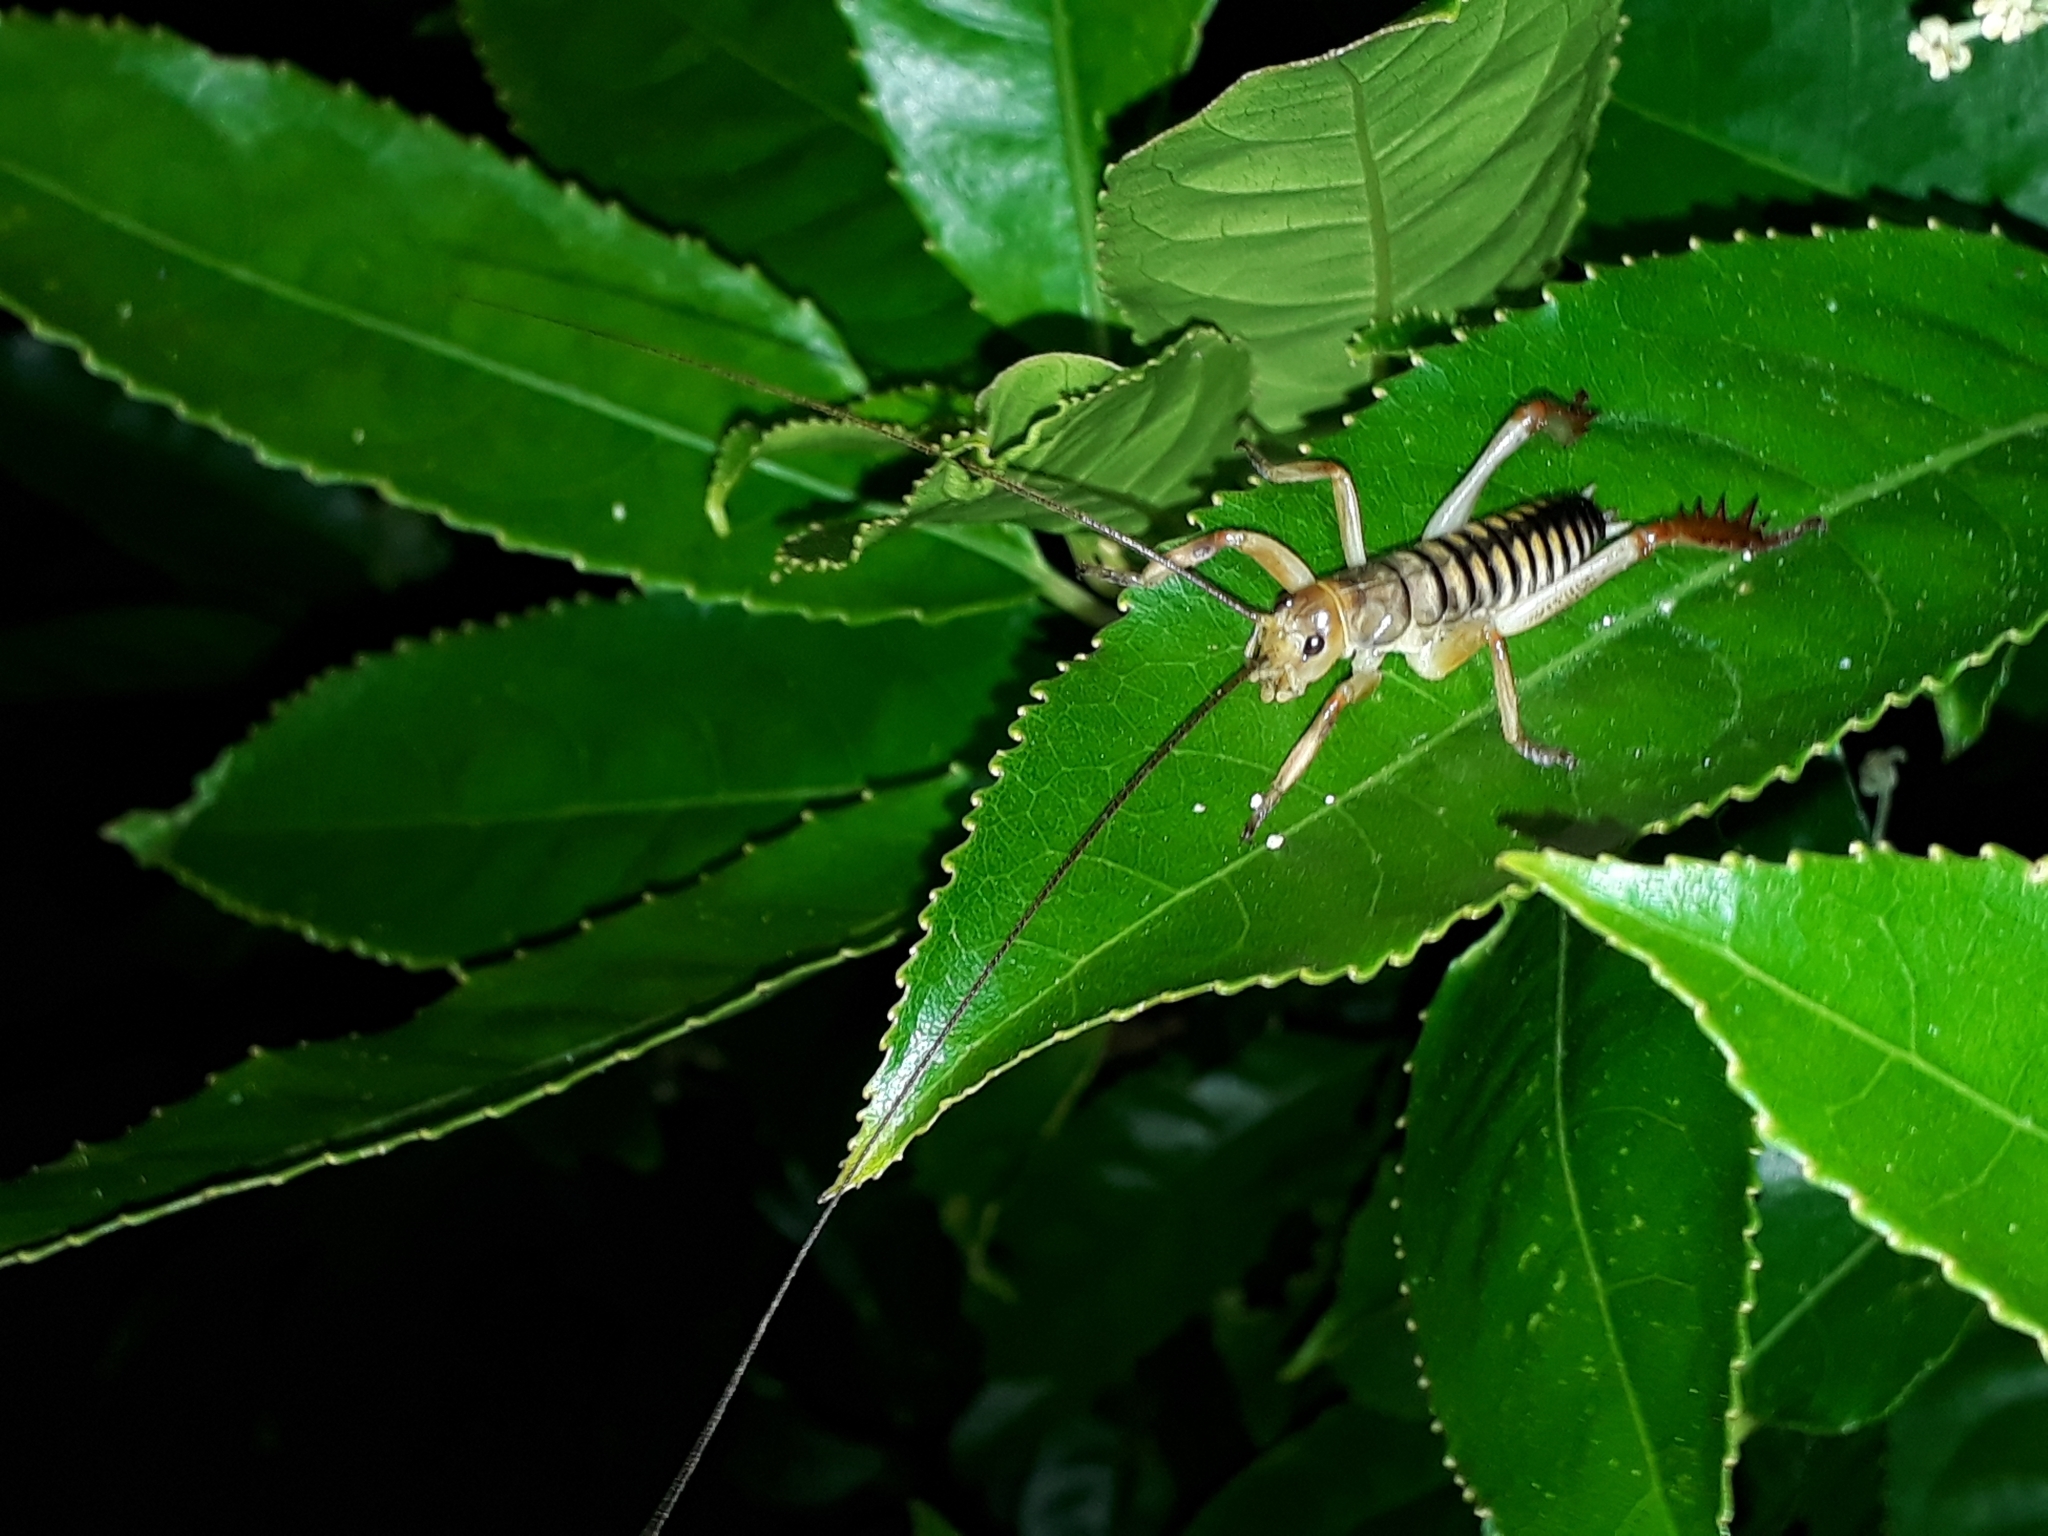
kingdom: Animalia
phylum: Arthropoda
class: Insecta
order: Orthoptera
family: Anostostomatidae
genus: Hemideina
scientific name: Hemideina crassidens
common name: Wellington tree weta
